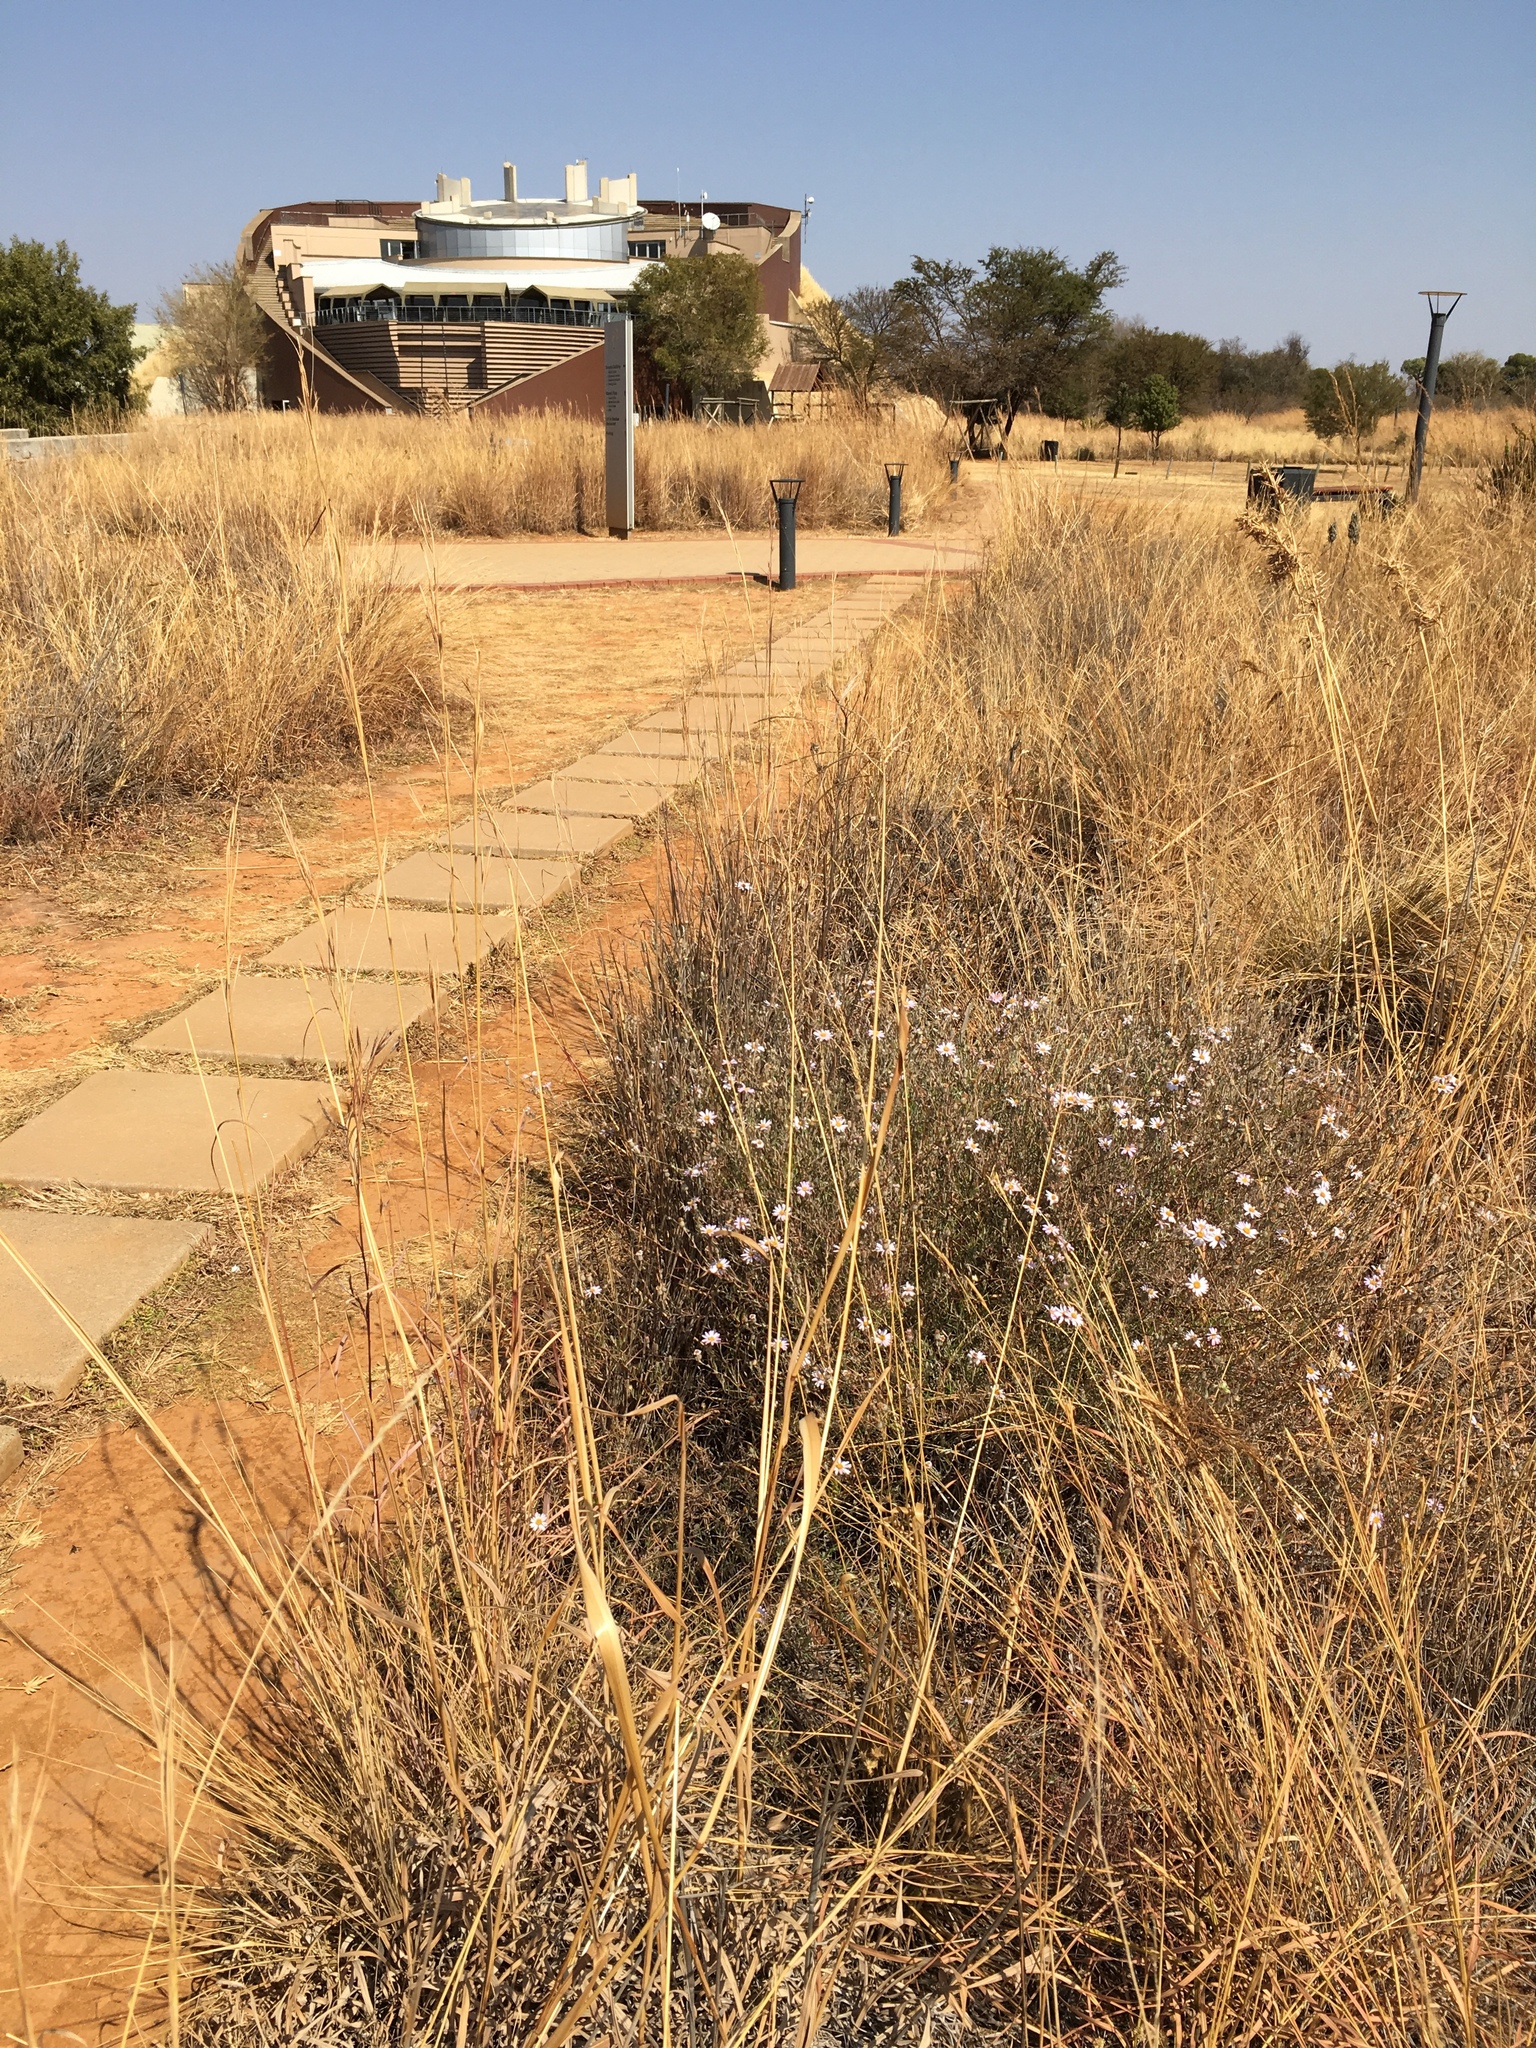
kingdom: Plantae
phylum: Tracheophyta
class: Magnoliopsida
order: Asterales
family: Asteraceae
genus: Athrixia
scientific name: Athrixia elata
